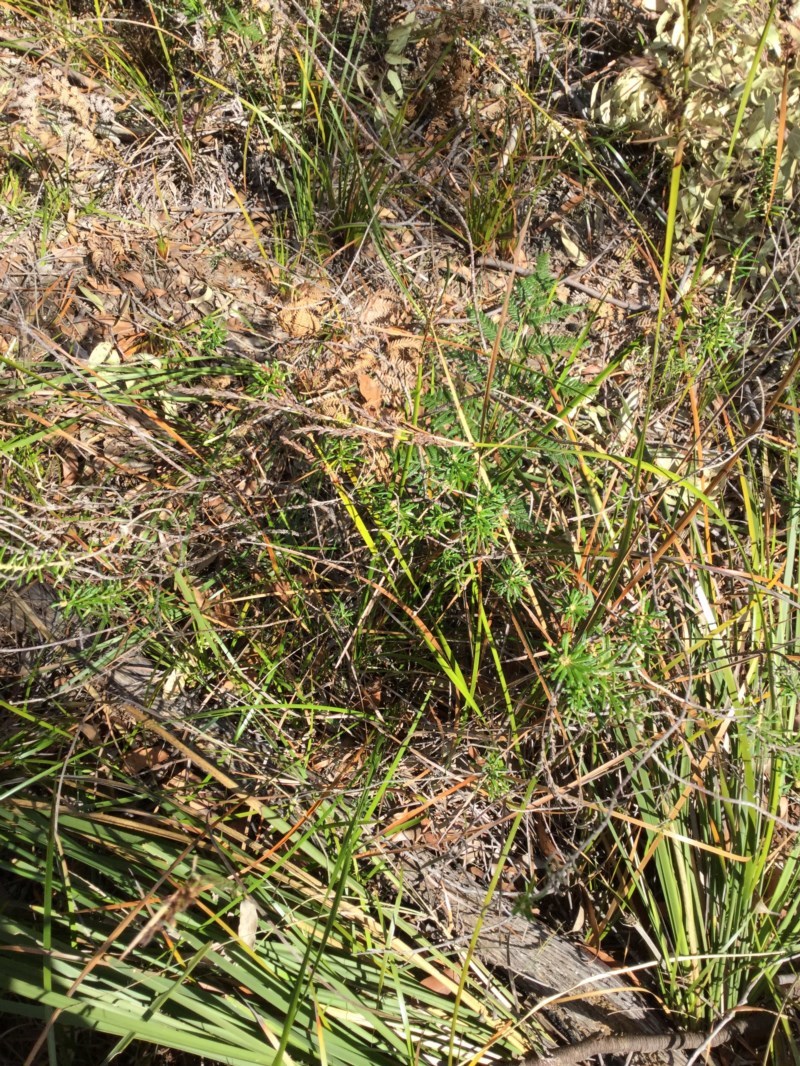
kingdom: Plantae
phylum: Tracheophyta
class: Magnoliopsida
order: Apiales
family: Araliaceae
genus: Astrotricha
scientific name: Astrotricha
